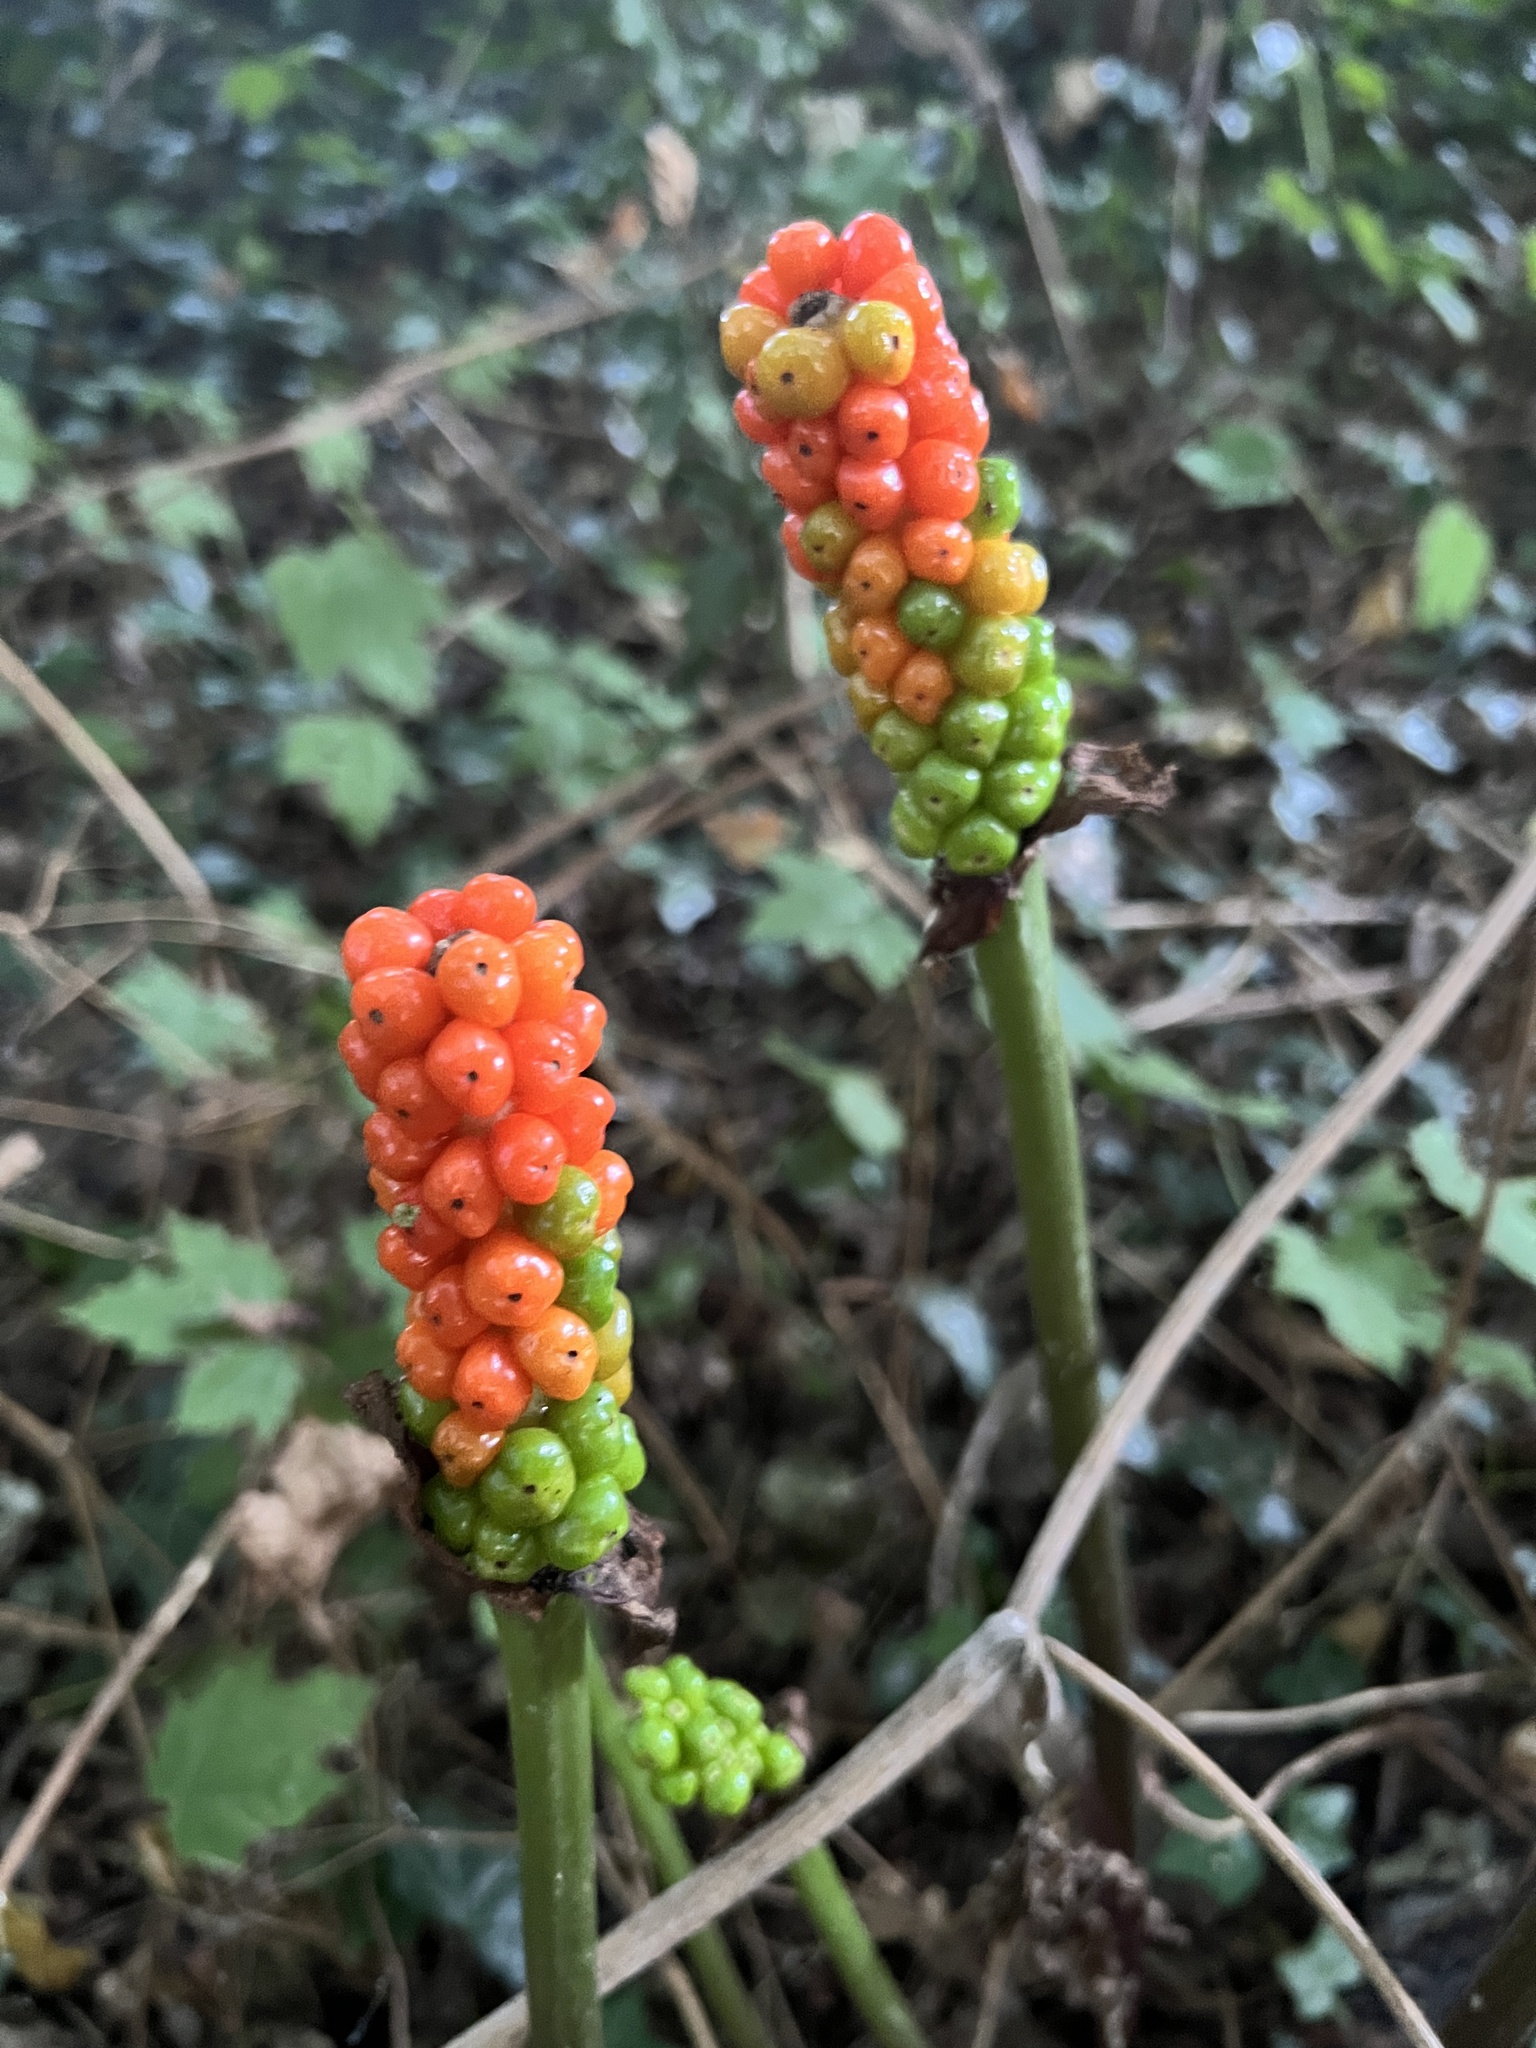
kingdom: Plantae
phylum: Tracheophyta
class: Liliopsida
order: Alismatales
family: Araceae
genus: Arum
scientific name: Arum maculatum
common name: Lords-and-ladies
